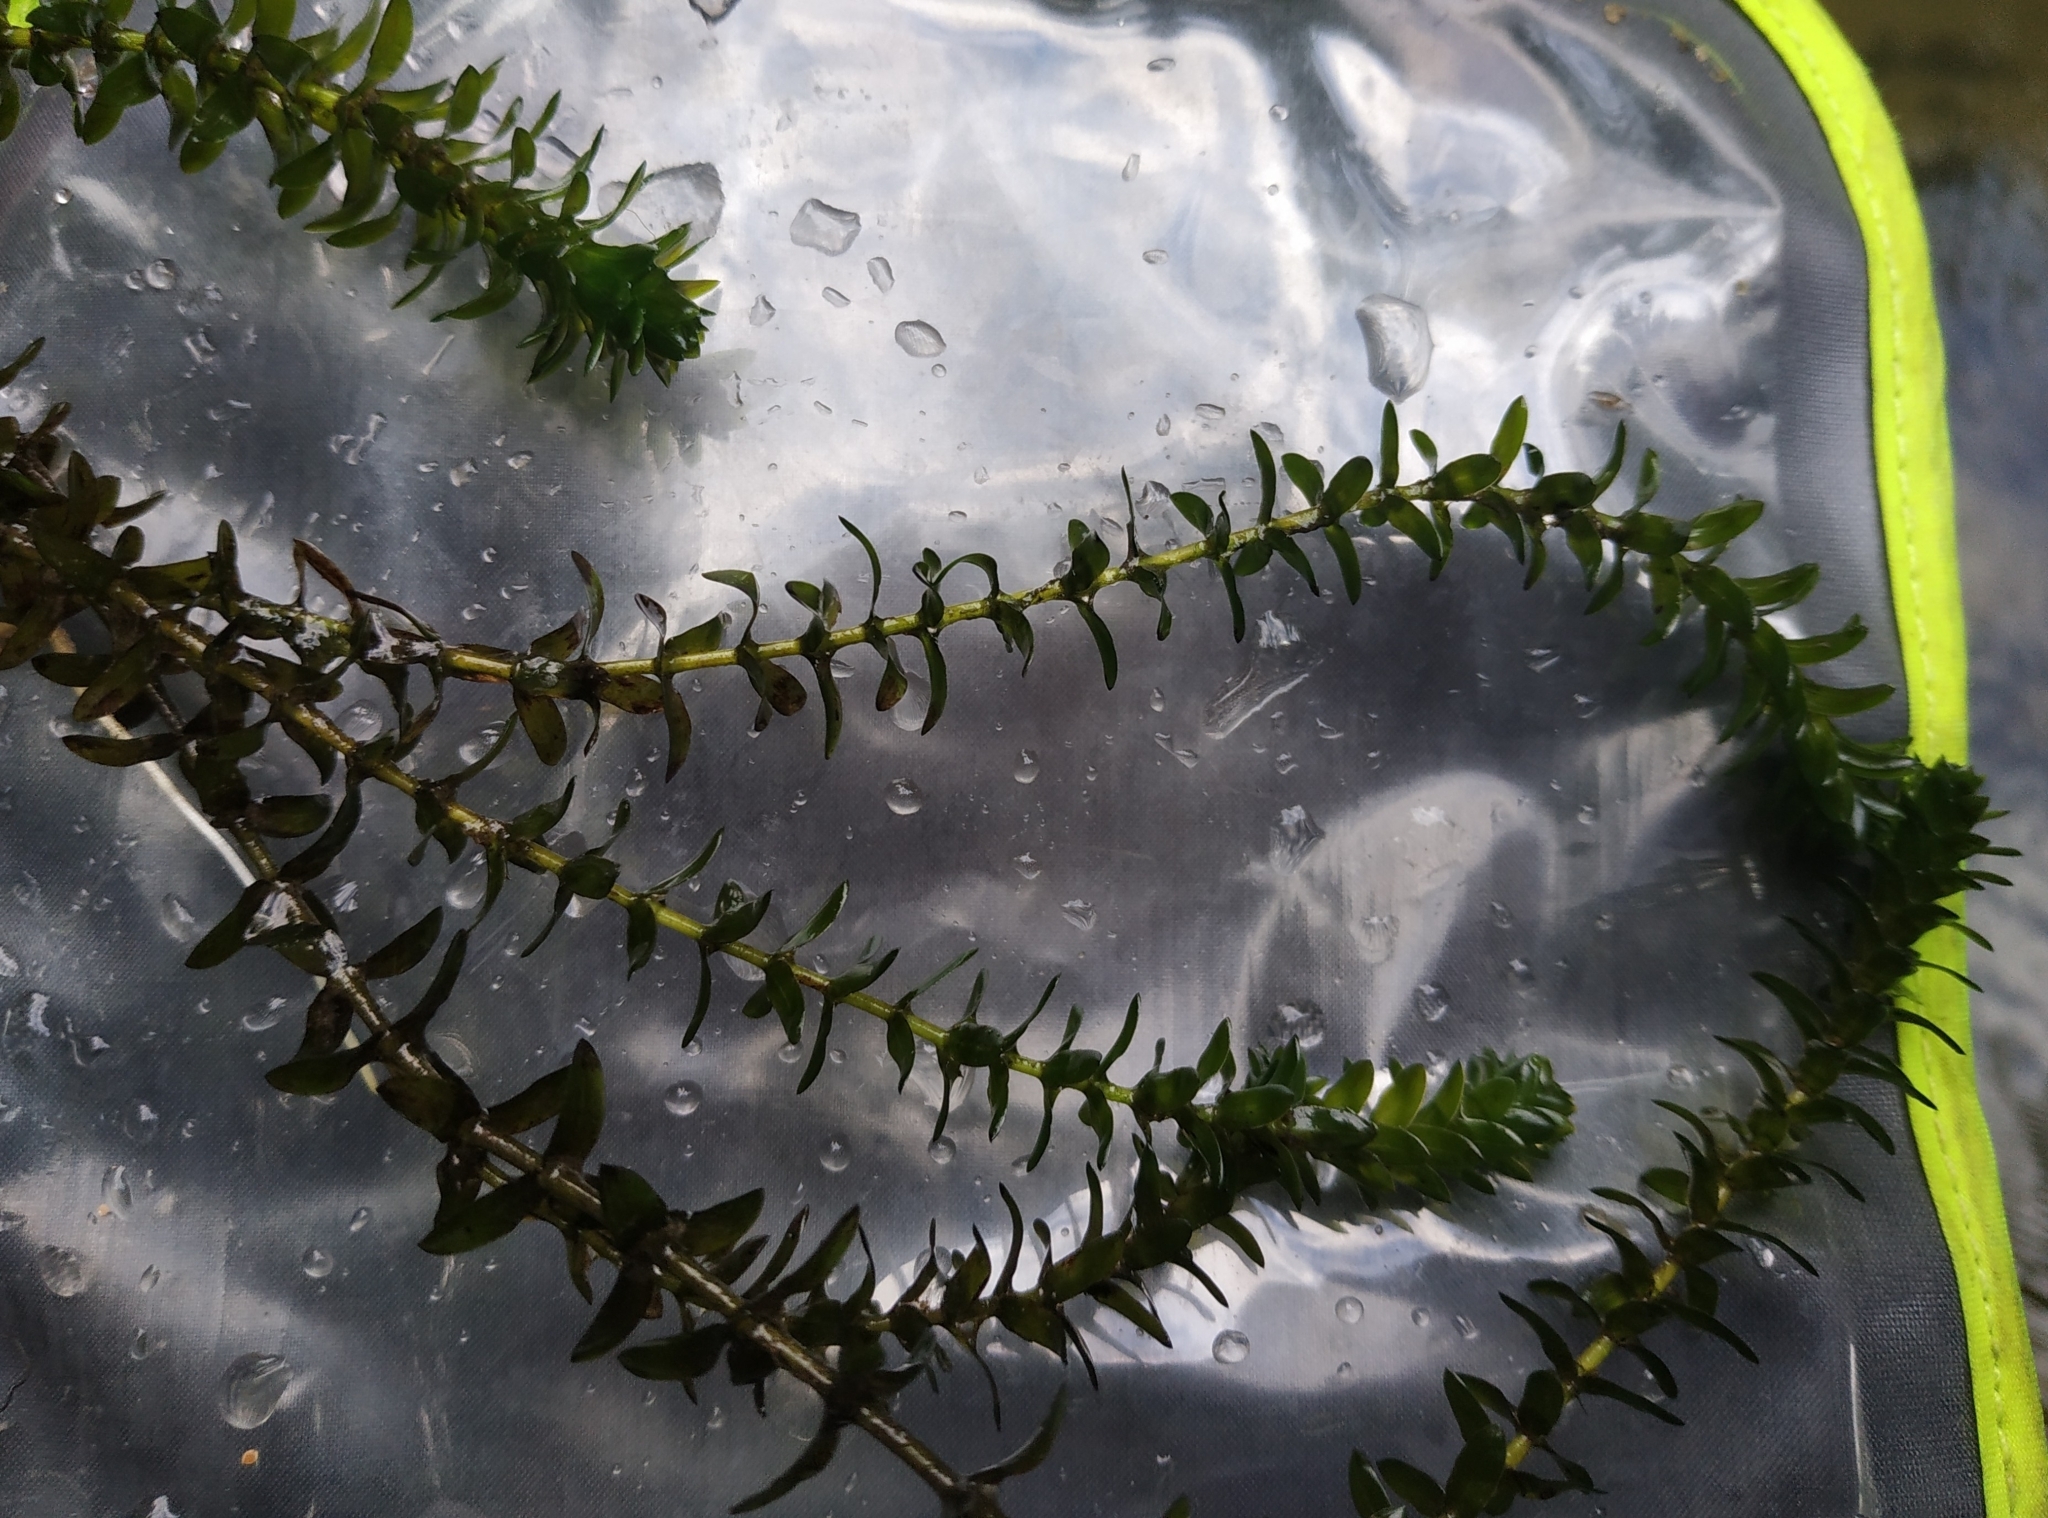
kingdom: Plantae
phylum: Tracheophyta
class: Liliopsida
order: Alismatales
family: Hydrocharitaceae
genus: Elodea
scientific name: Elodea canadensis
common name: Canadian waterweed
